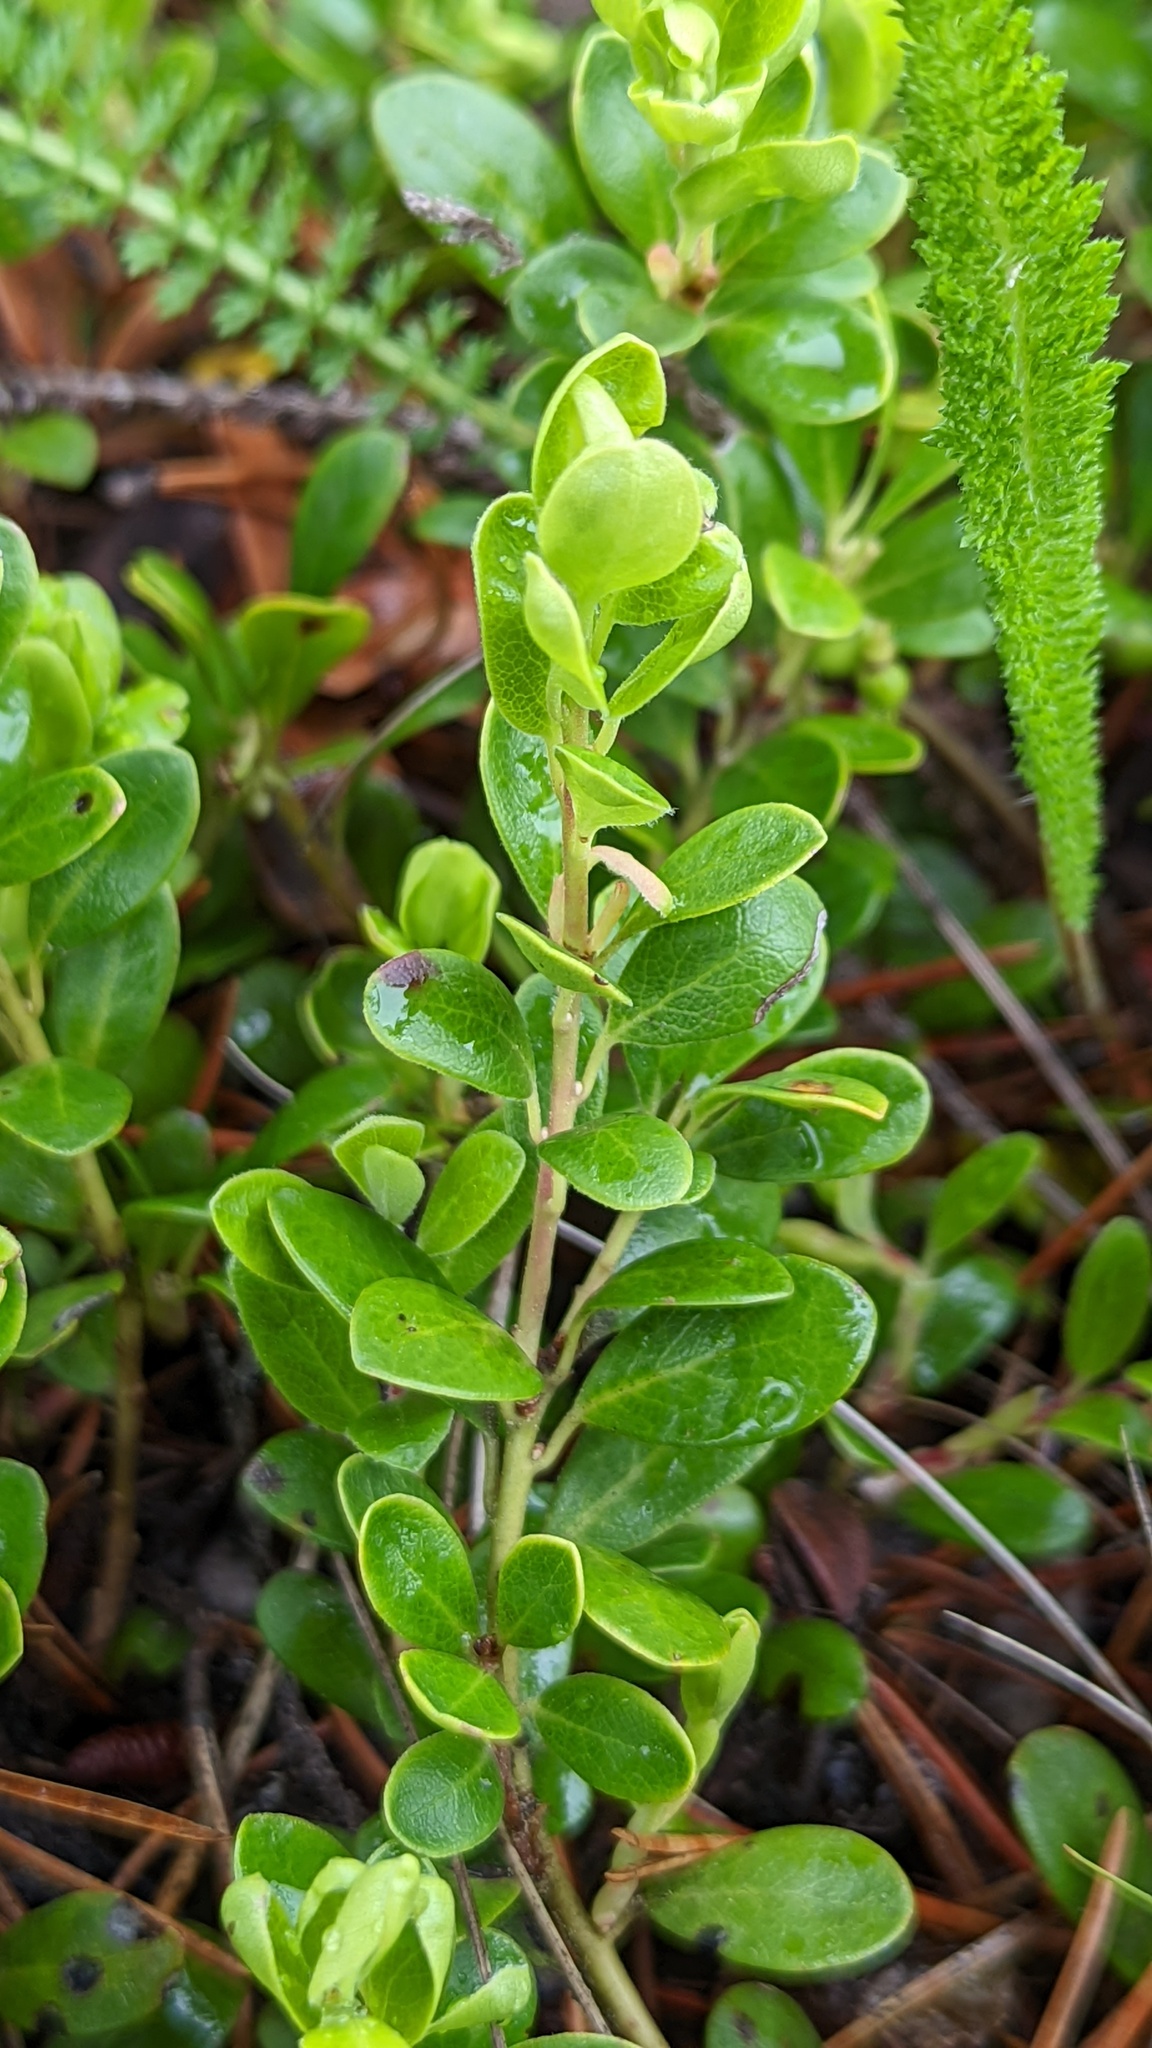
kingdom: Plantae
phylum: Tracheophyta
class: Magnoliopsida
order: Ericales
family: Ericaceae
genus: Arctostaphylos
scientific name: Arctostaphylos uva-ursi
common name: Bearberry
